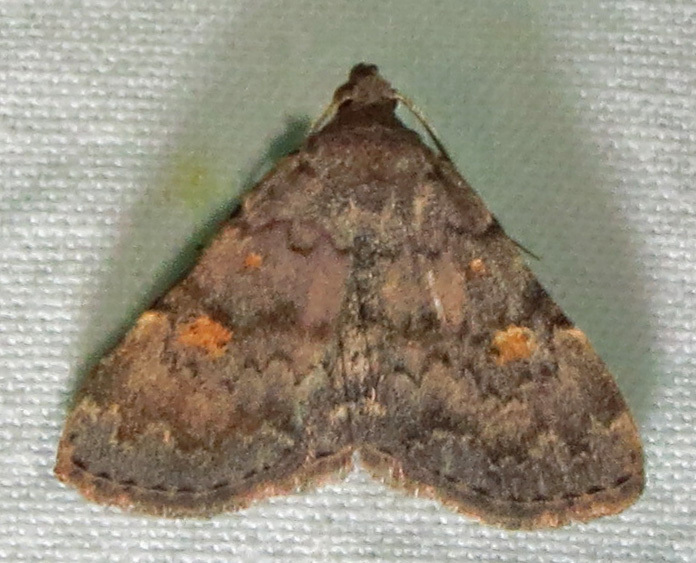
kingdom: Animalia
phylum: Arthropoda
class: Insecta
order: Lepidoptera
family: Erebidae
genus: Idia
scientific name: Idia aemula
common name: Common idia moth
